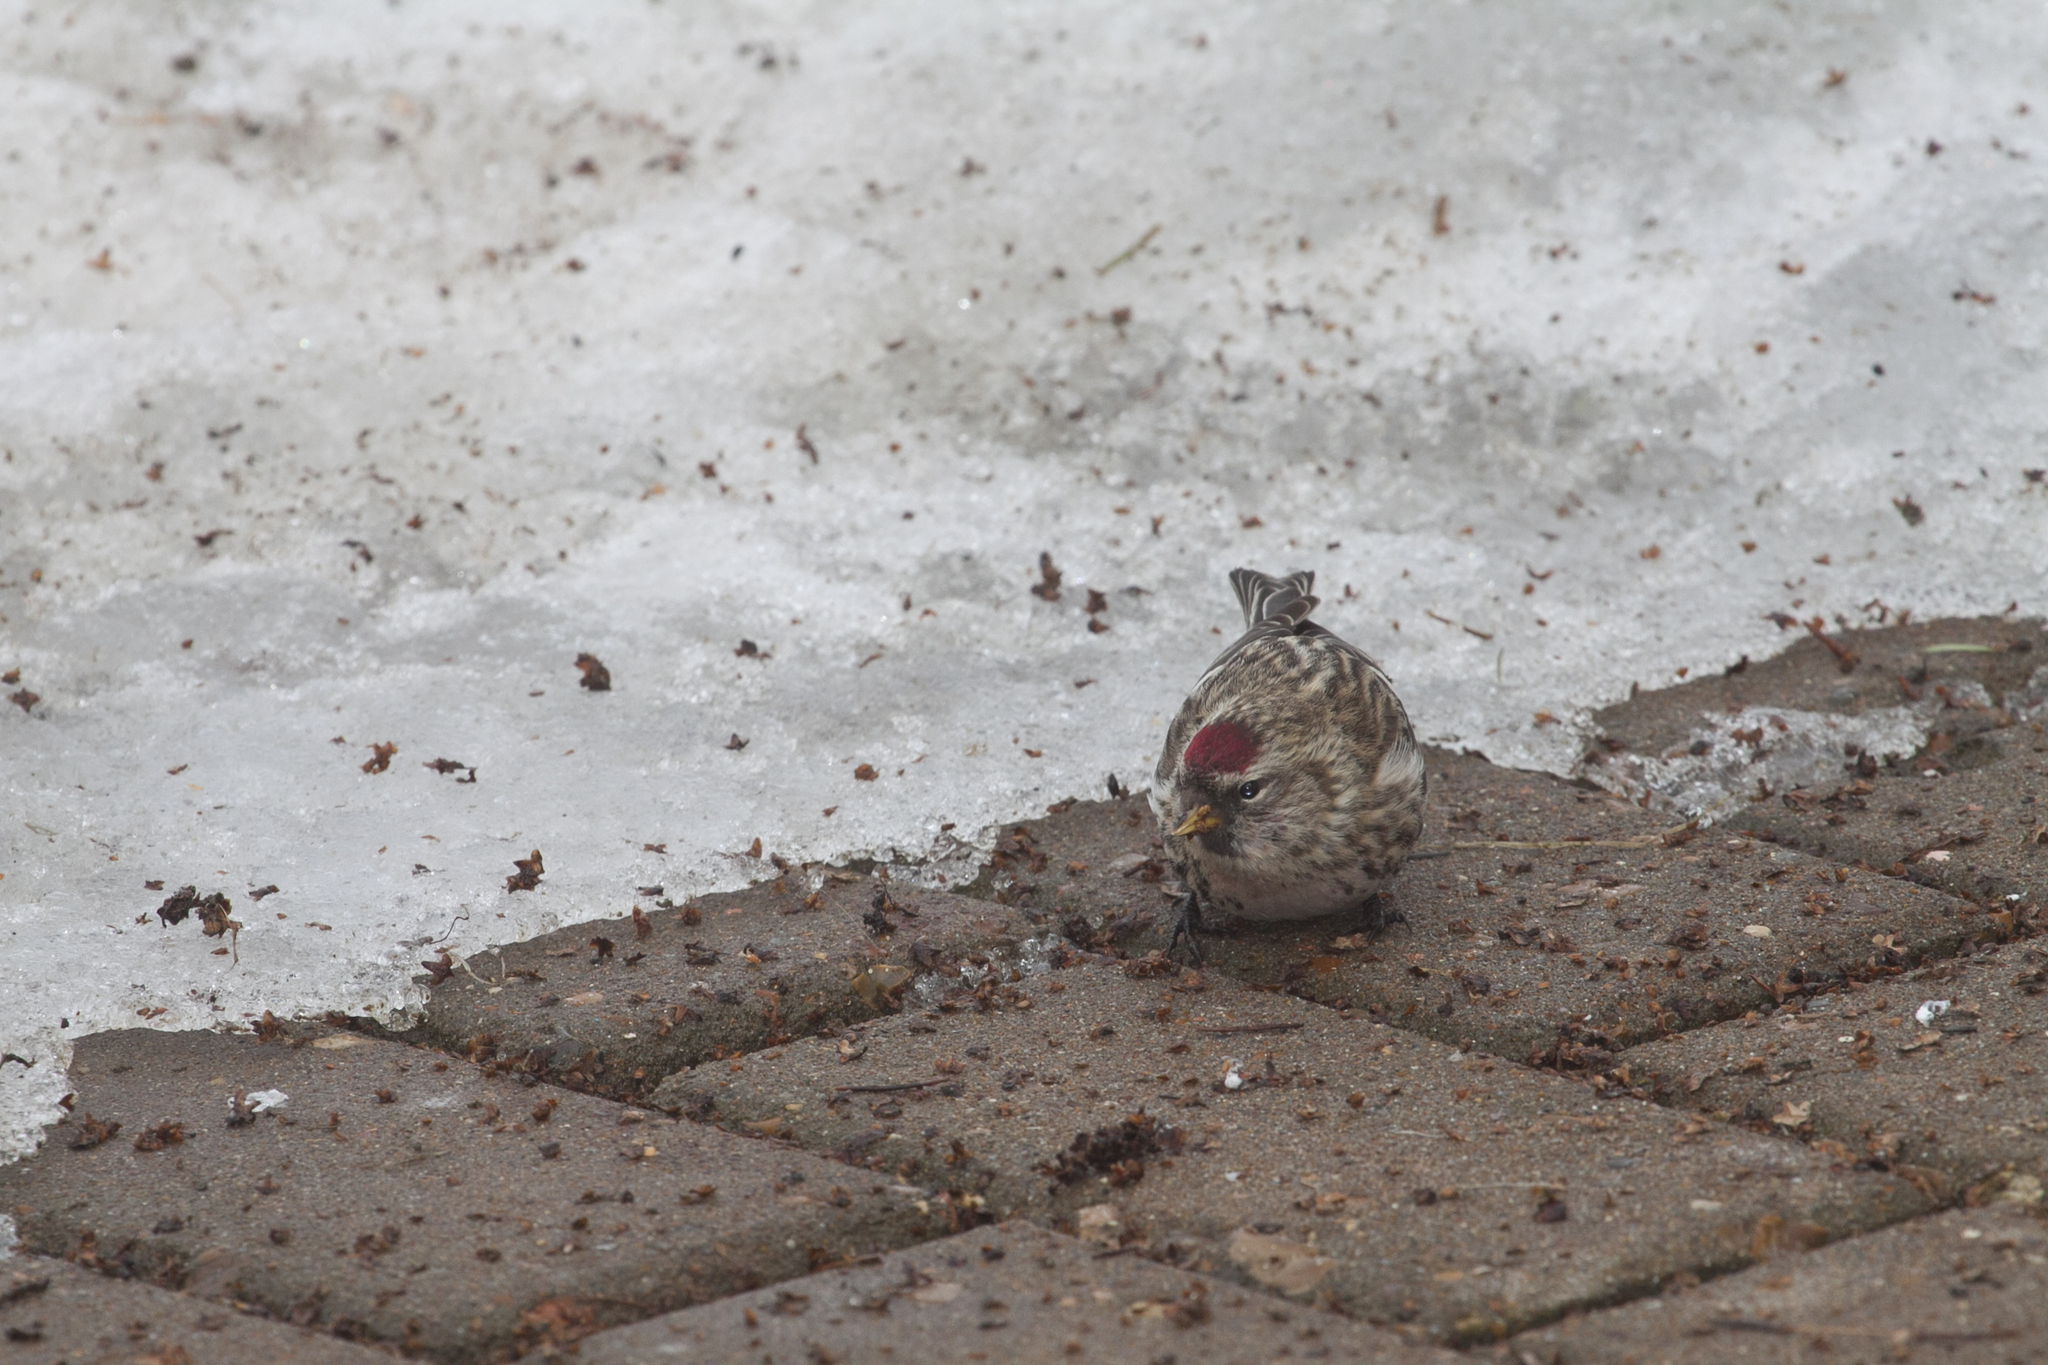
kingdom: Animalia
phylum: Chordata
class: Aves
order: Passeriformes
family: Fringillidae
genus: Acanthis
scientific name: Acanthis flammea
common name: Common redpoll
